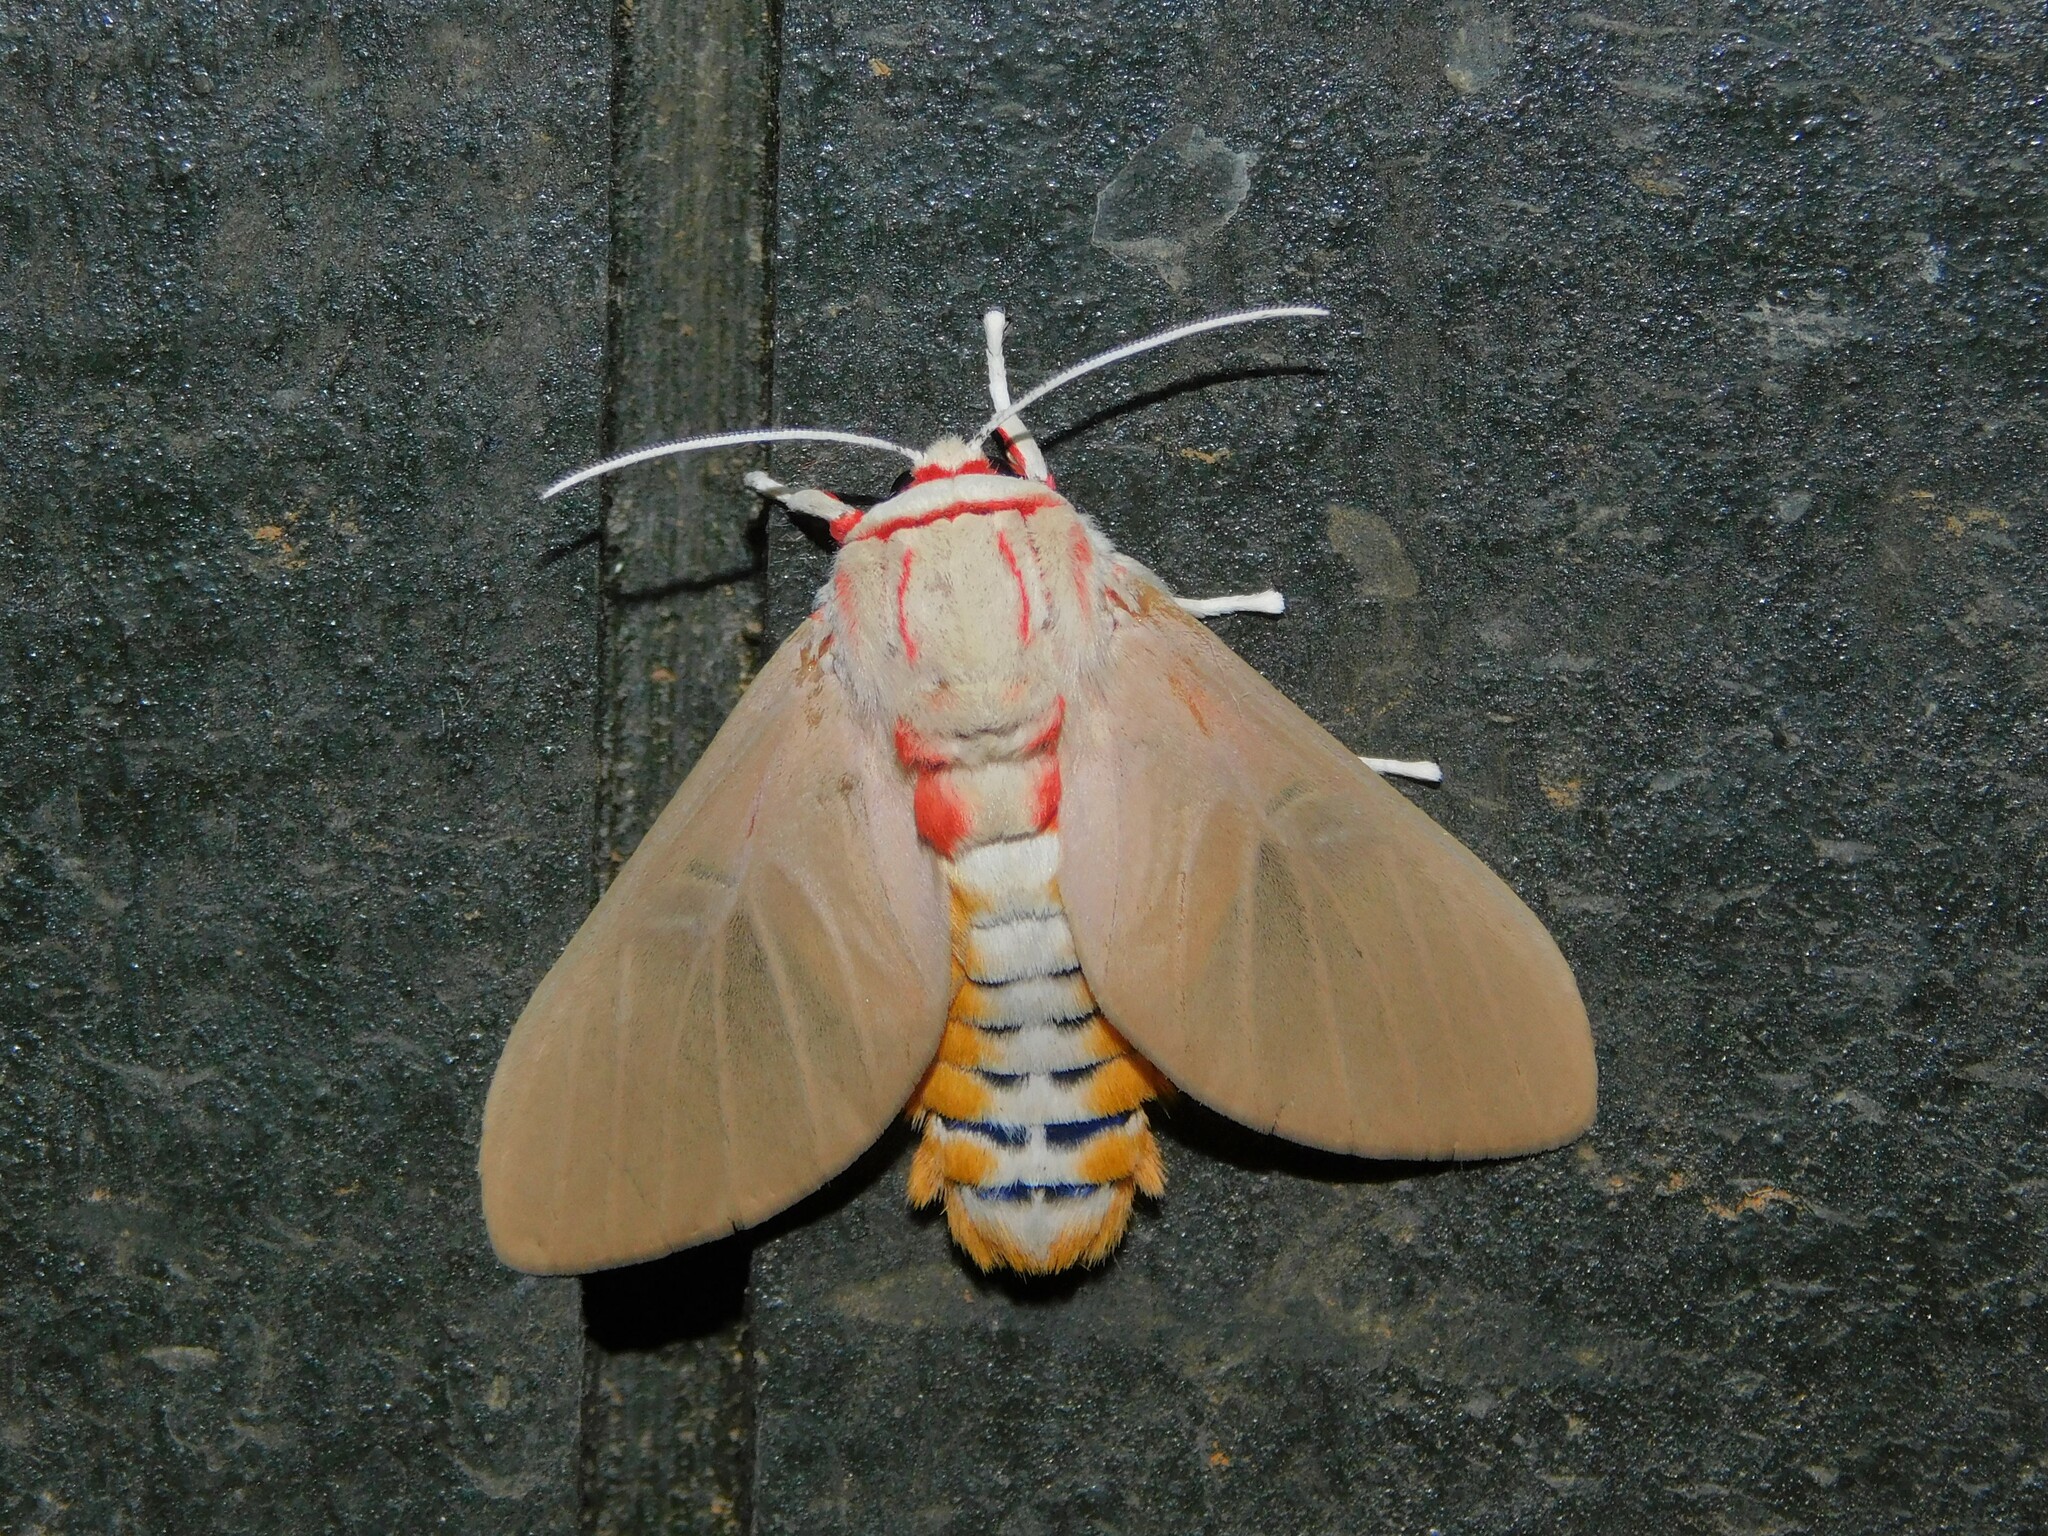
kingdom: Animalia
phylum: Arthropoda
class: Insecta
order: Lepidoptera
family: Erebidae
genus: Balacra
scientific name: Balacra herona
